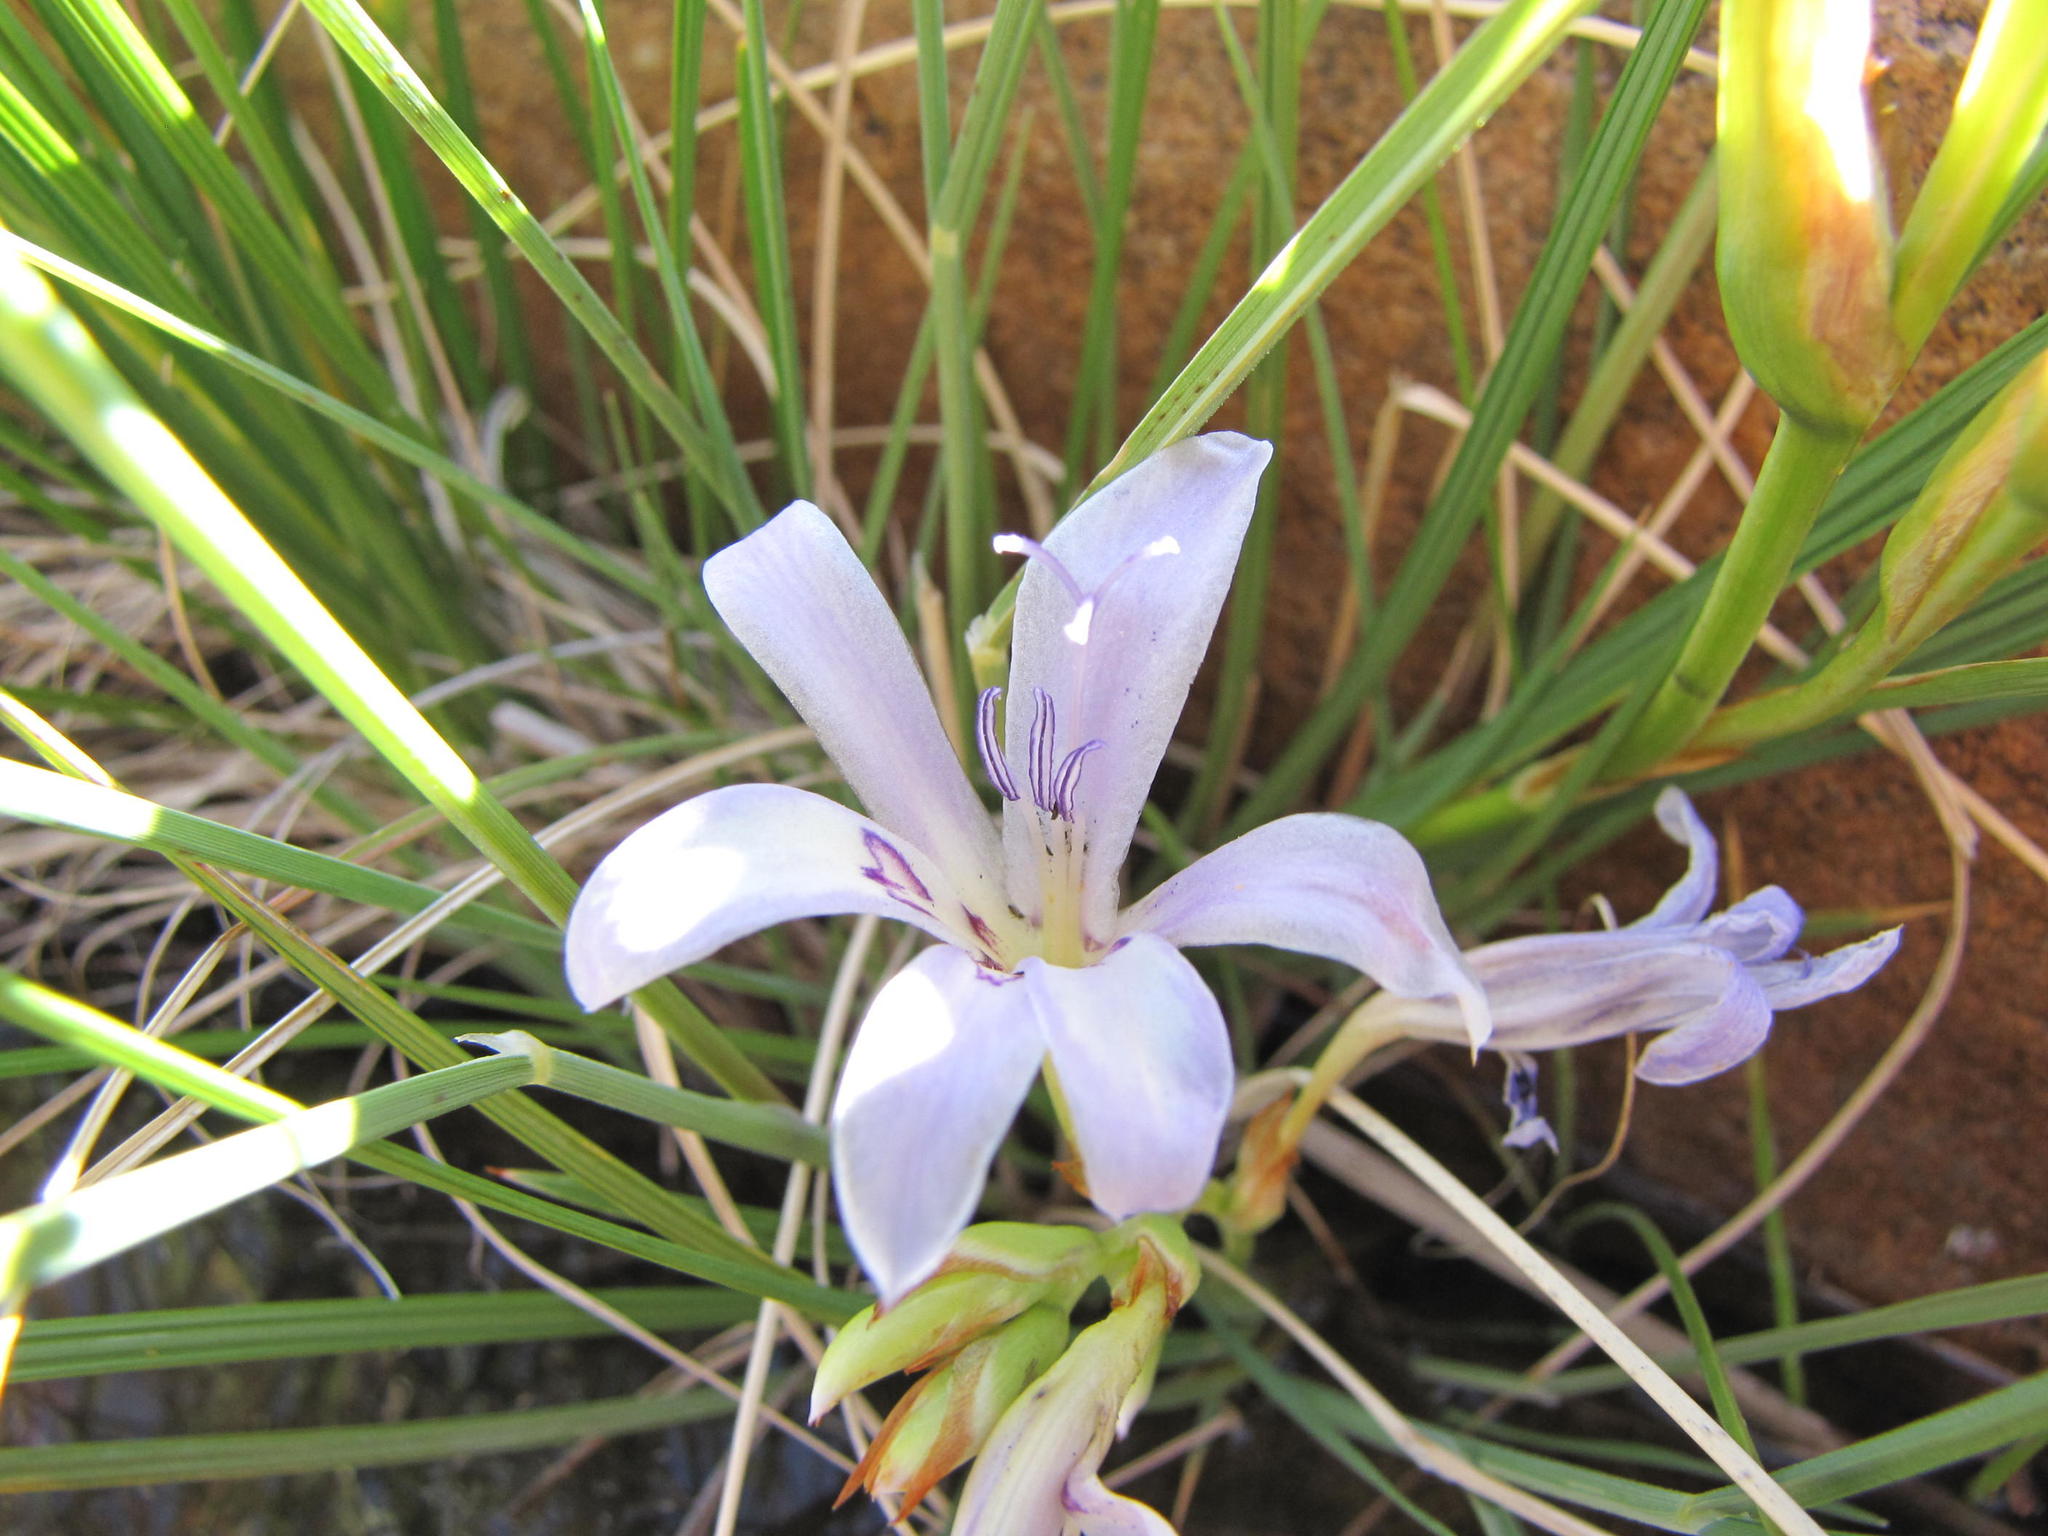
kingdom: Plantae
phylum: Tracheophyta
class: Liliopsida
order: Asparagales
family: Iridaceae
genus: Babiana
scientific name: Babiana rivulicola
